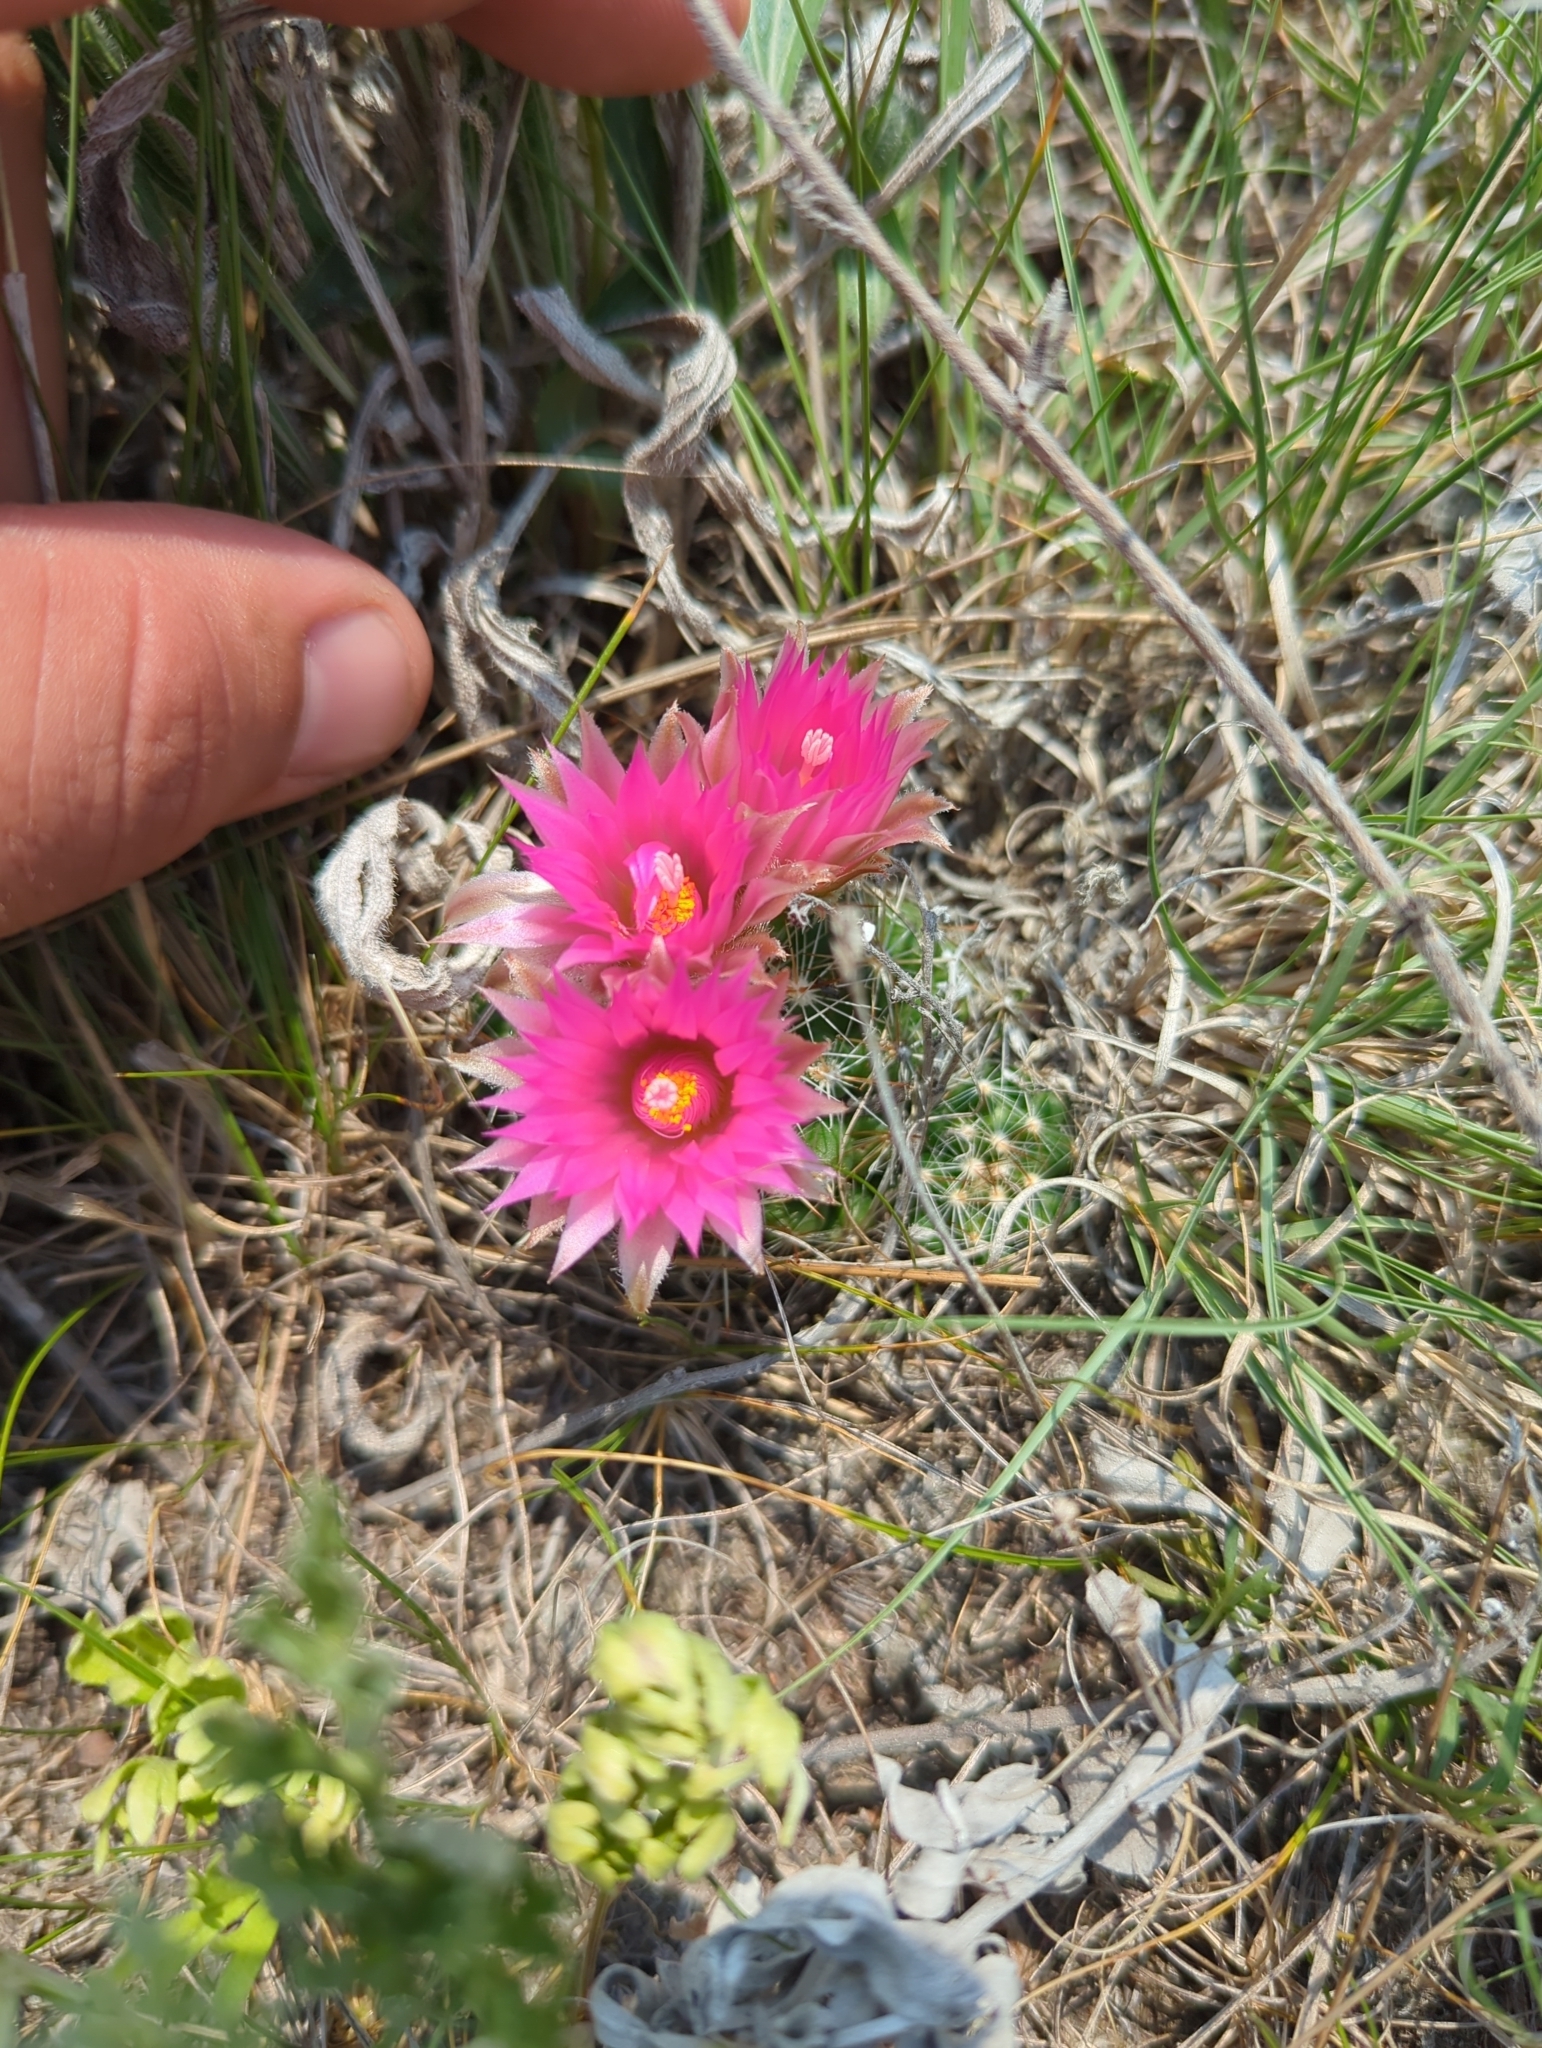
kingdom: Plantae
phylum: Tracheophyta
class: Magnoliopsida
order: Caryophyllales
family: Cactaceae
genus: Pelecyphora
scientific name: Pelecyphora vivipara
